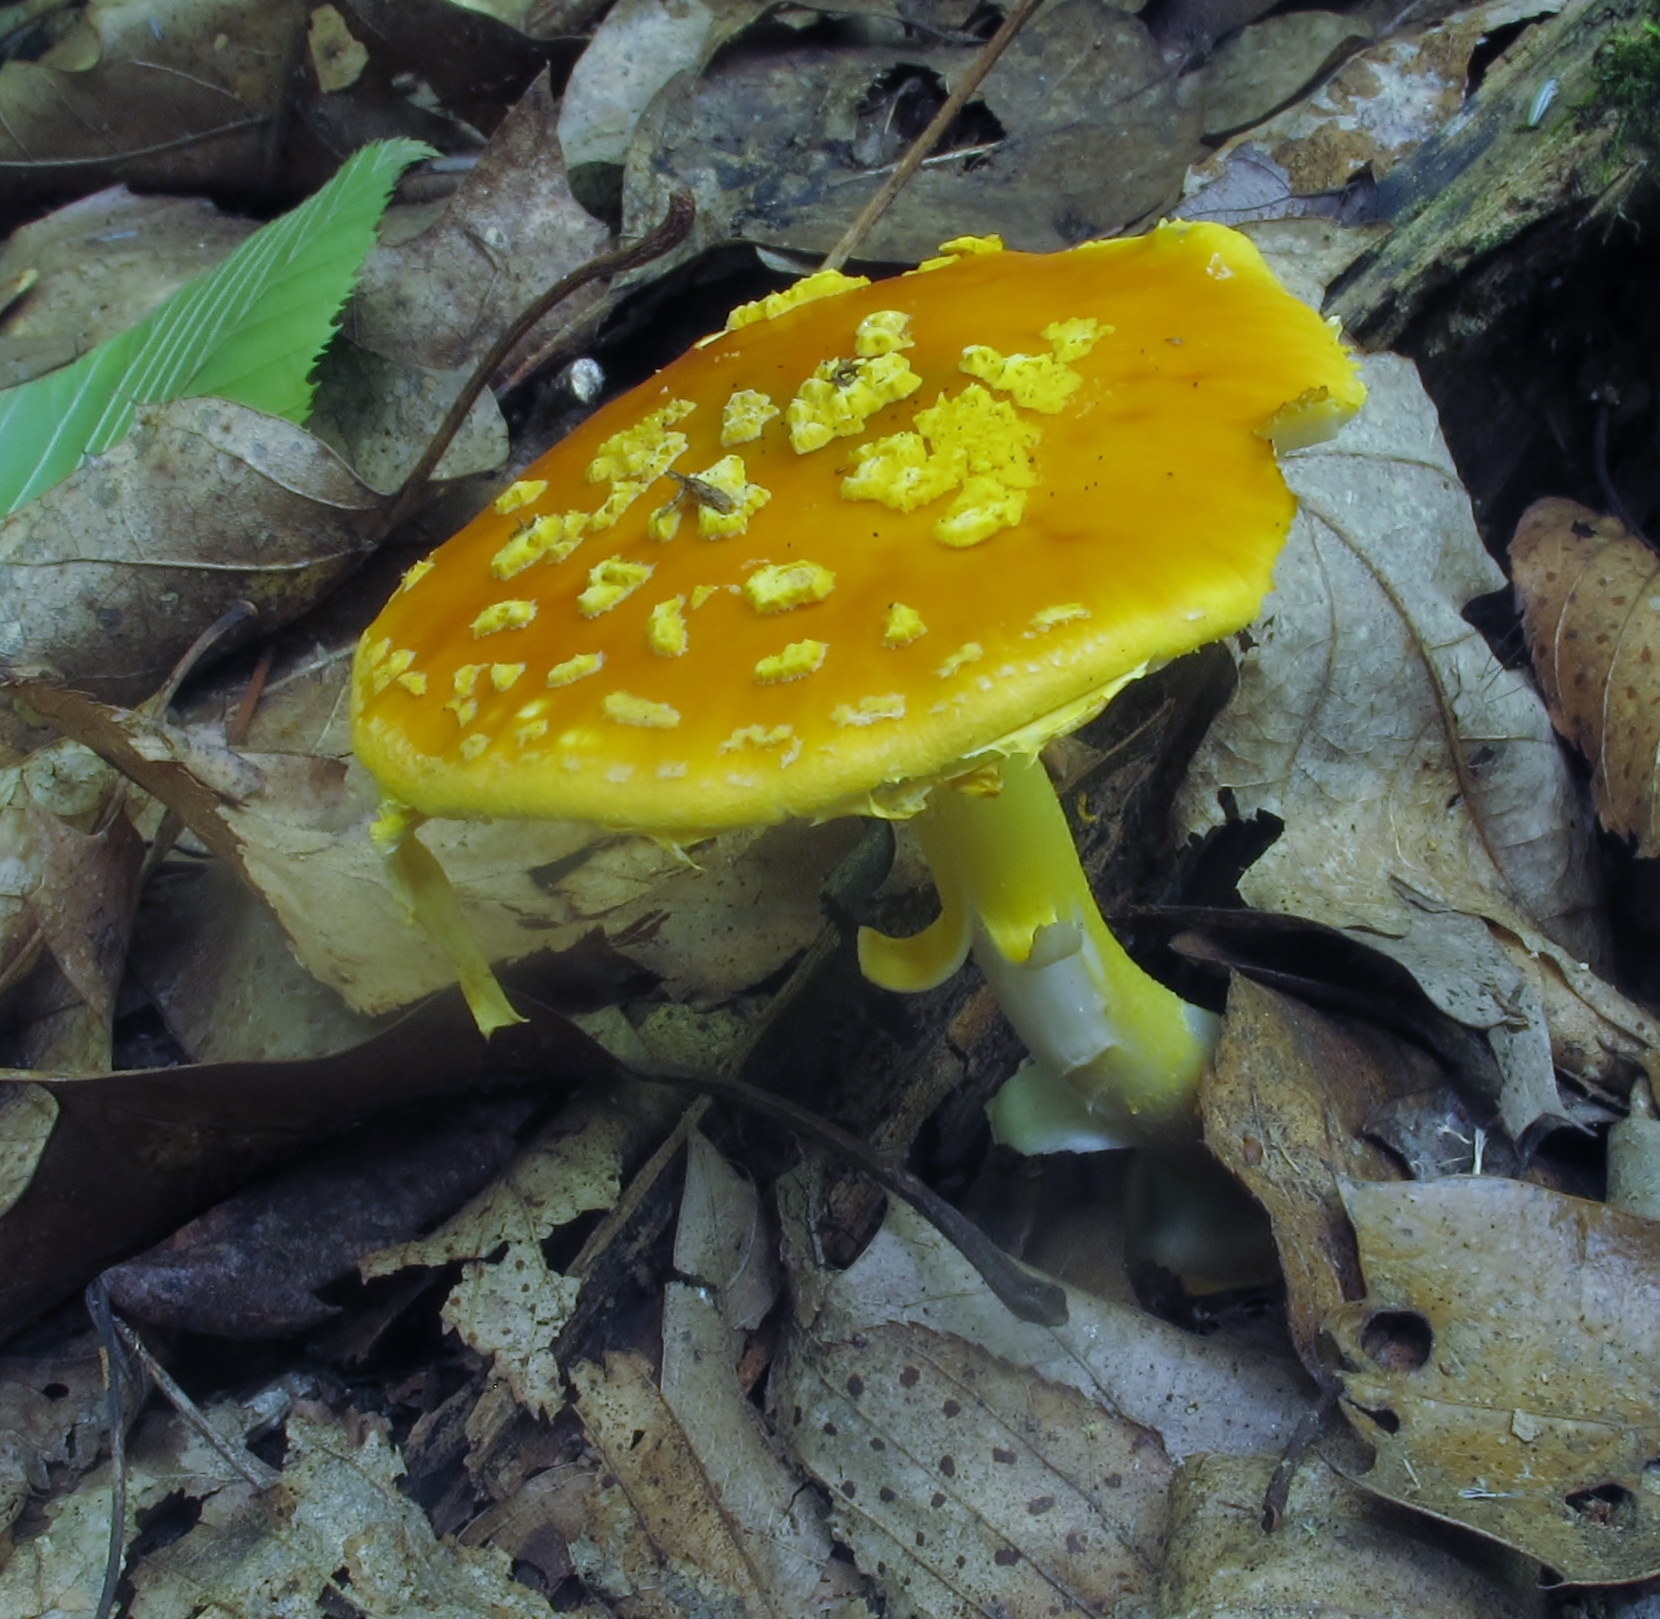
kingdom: Fungi
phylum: Basidiomycota
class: Agaricomycetes
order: Agaricales
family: Amanitaceae
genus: Amanita
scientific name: Amanita flavoconia
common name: Yellow patches
